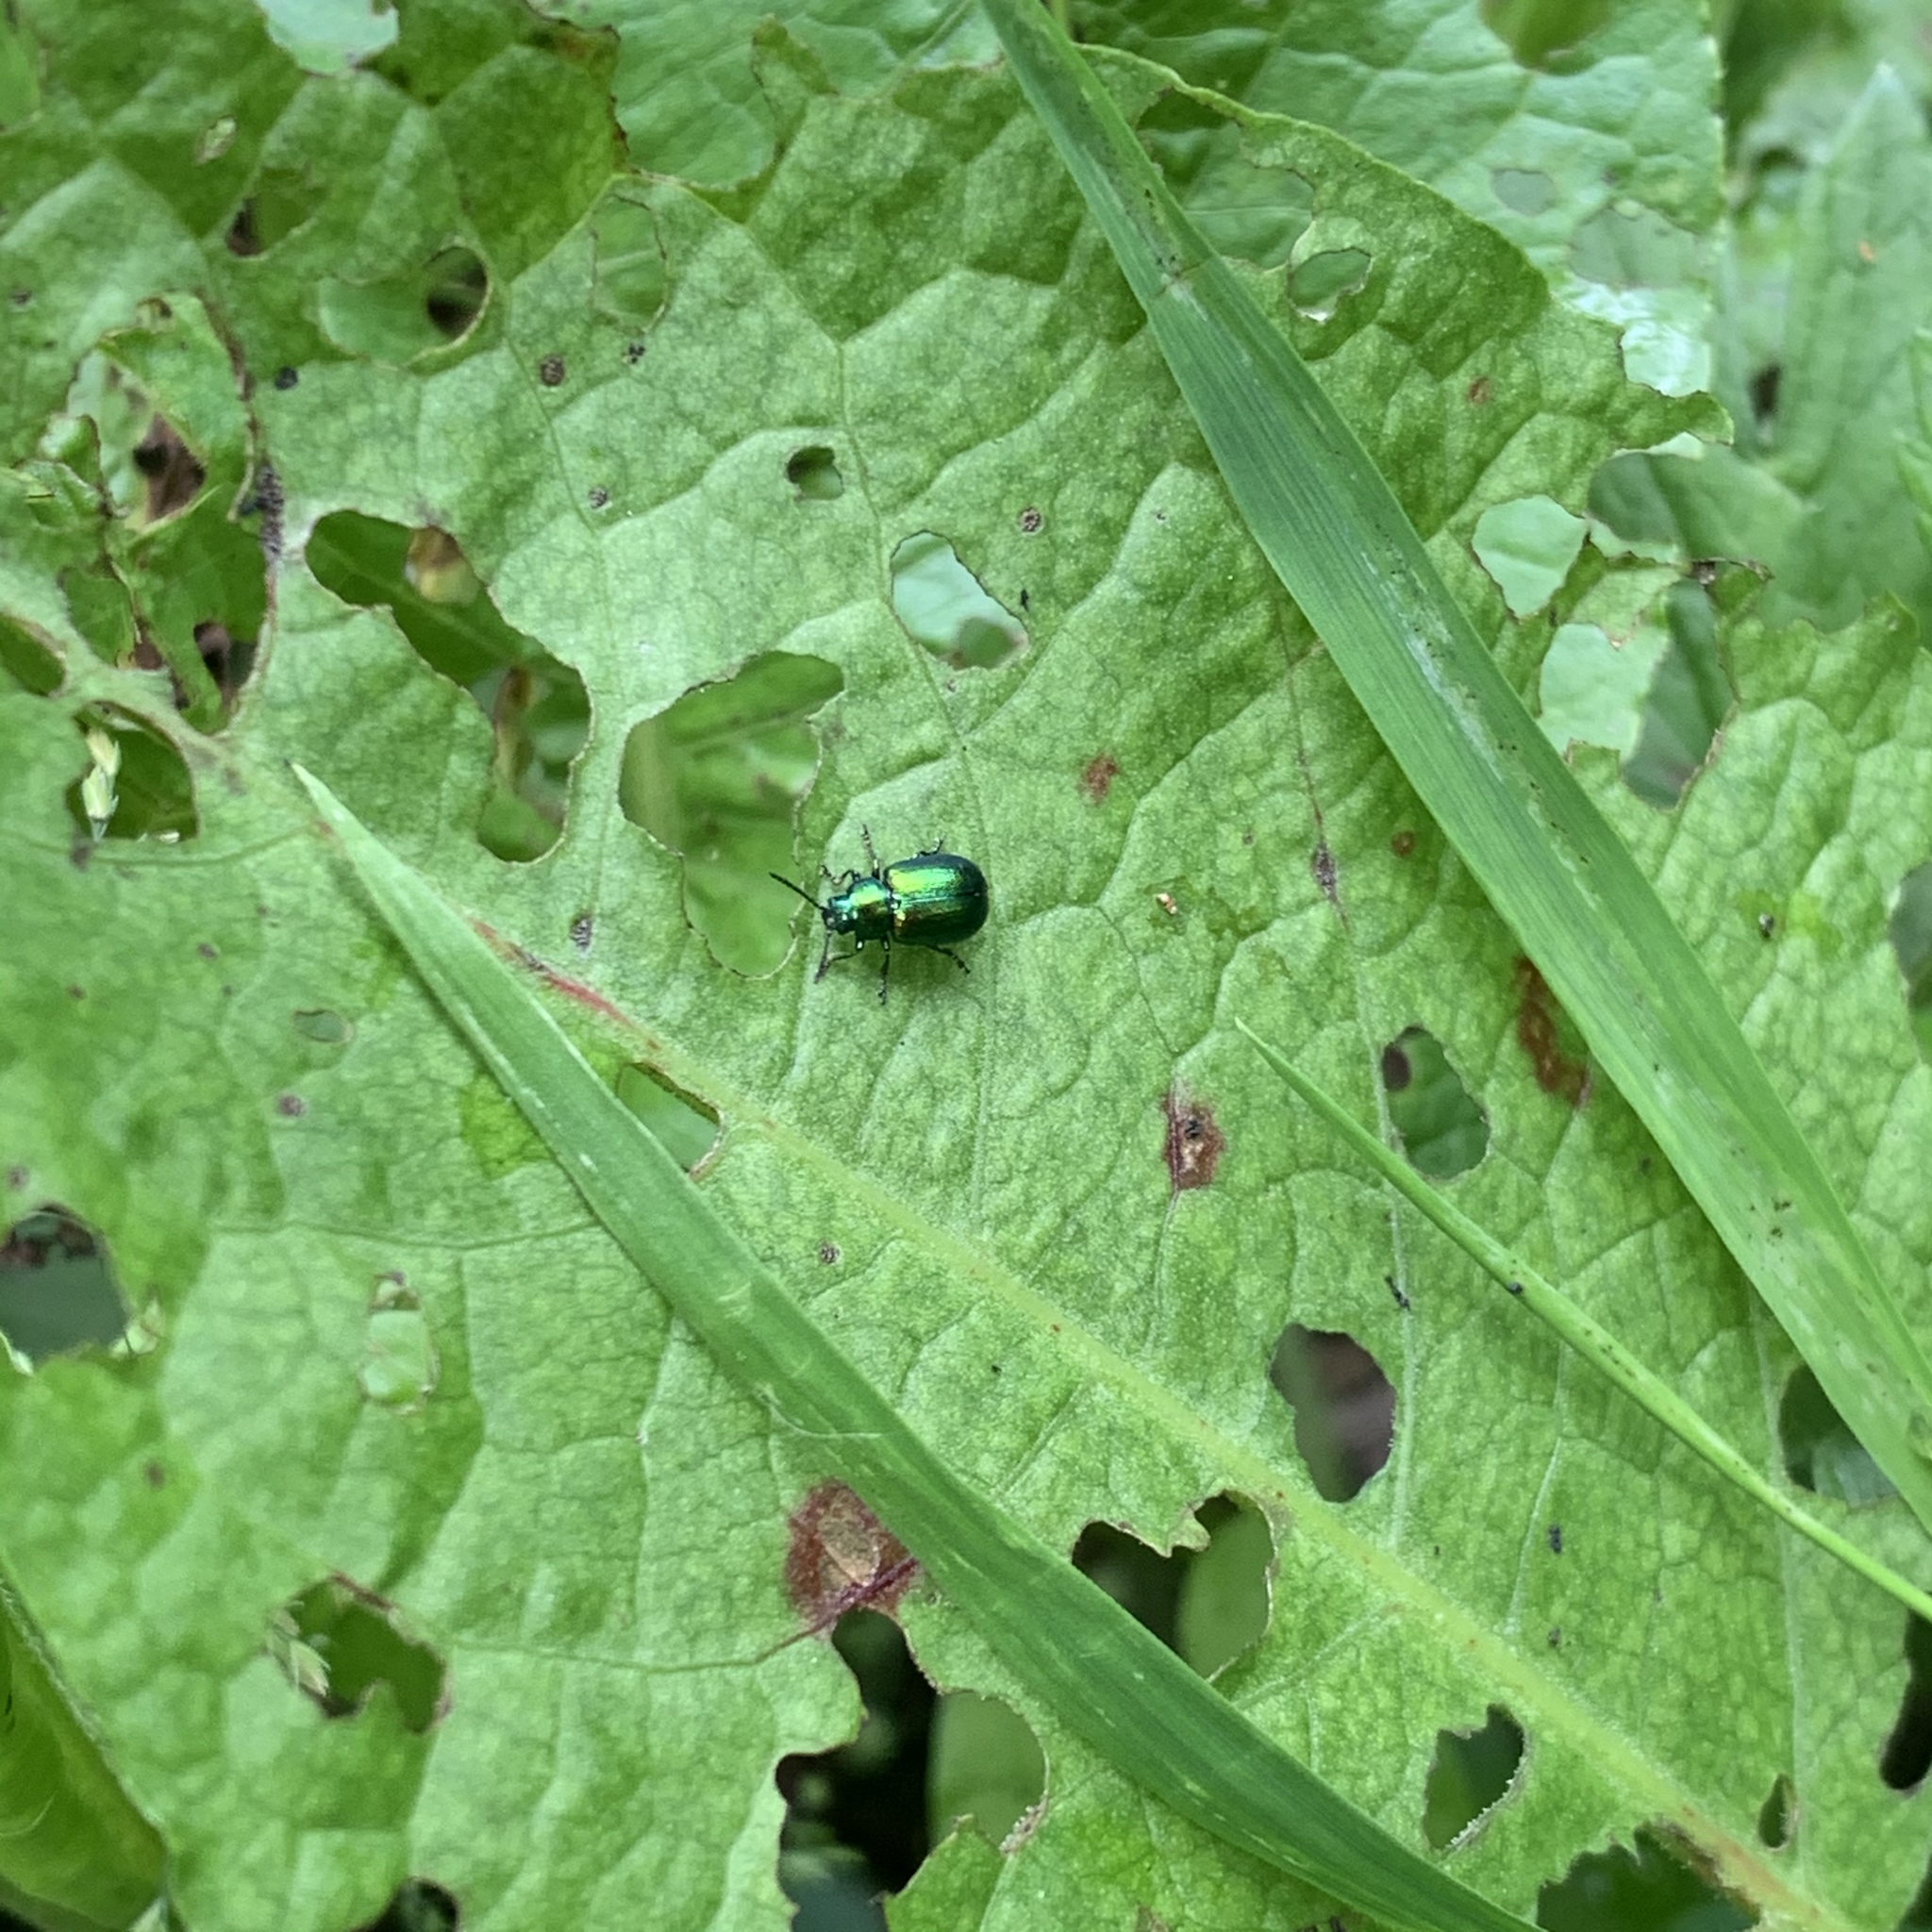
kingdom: Animalia
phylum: Arthropoda
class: Insecta
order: Coleoptera
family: Chrysomelidae
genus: Gastrophysa
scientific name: Gastrophysa viridula
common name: Green dock beetle
